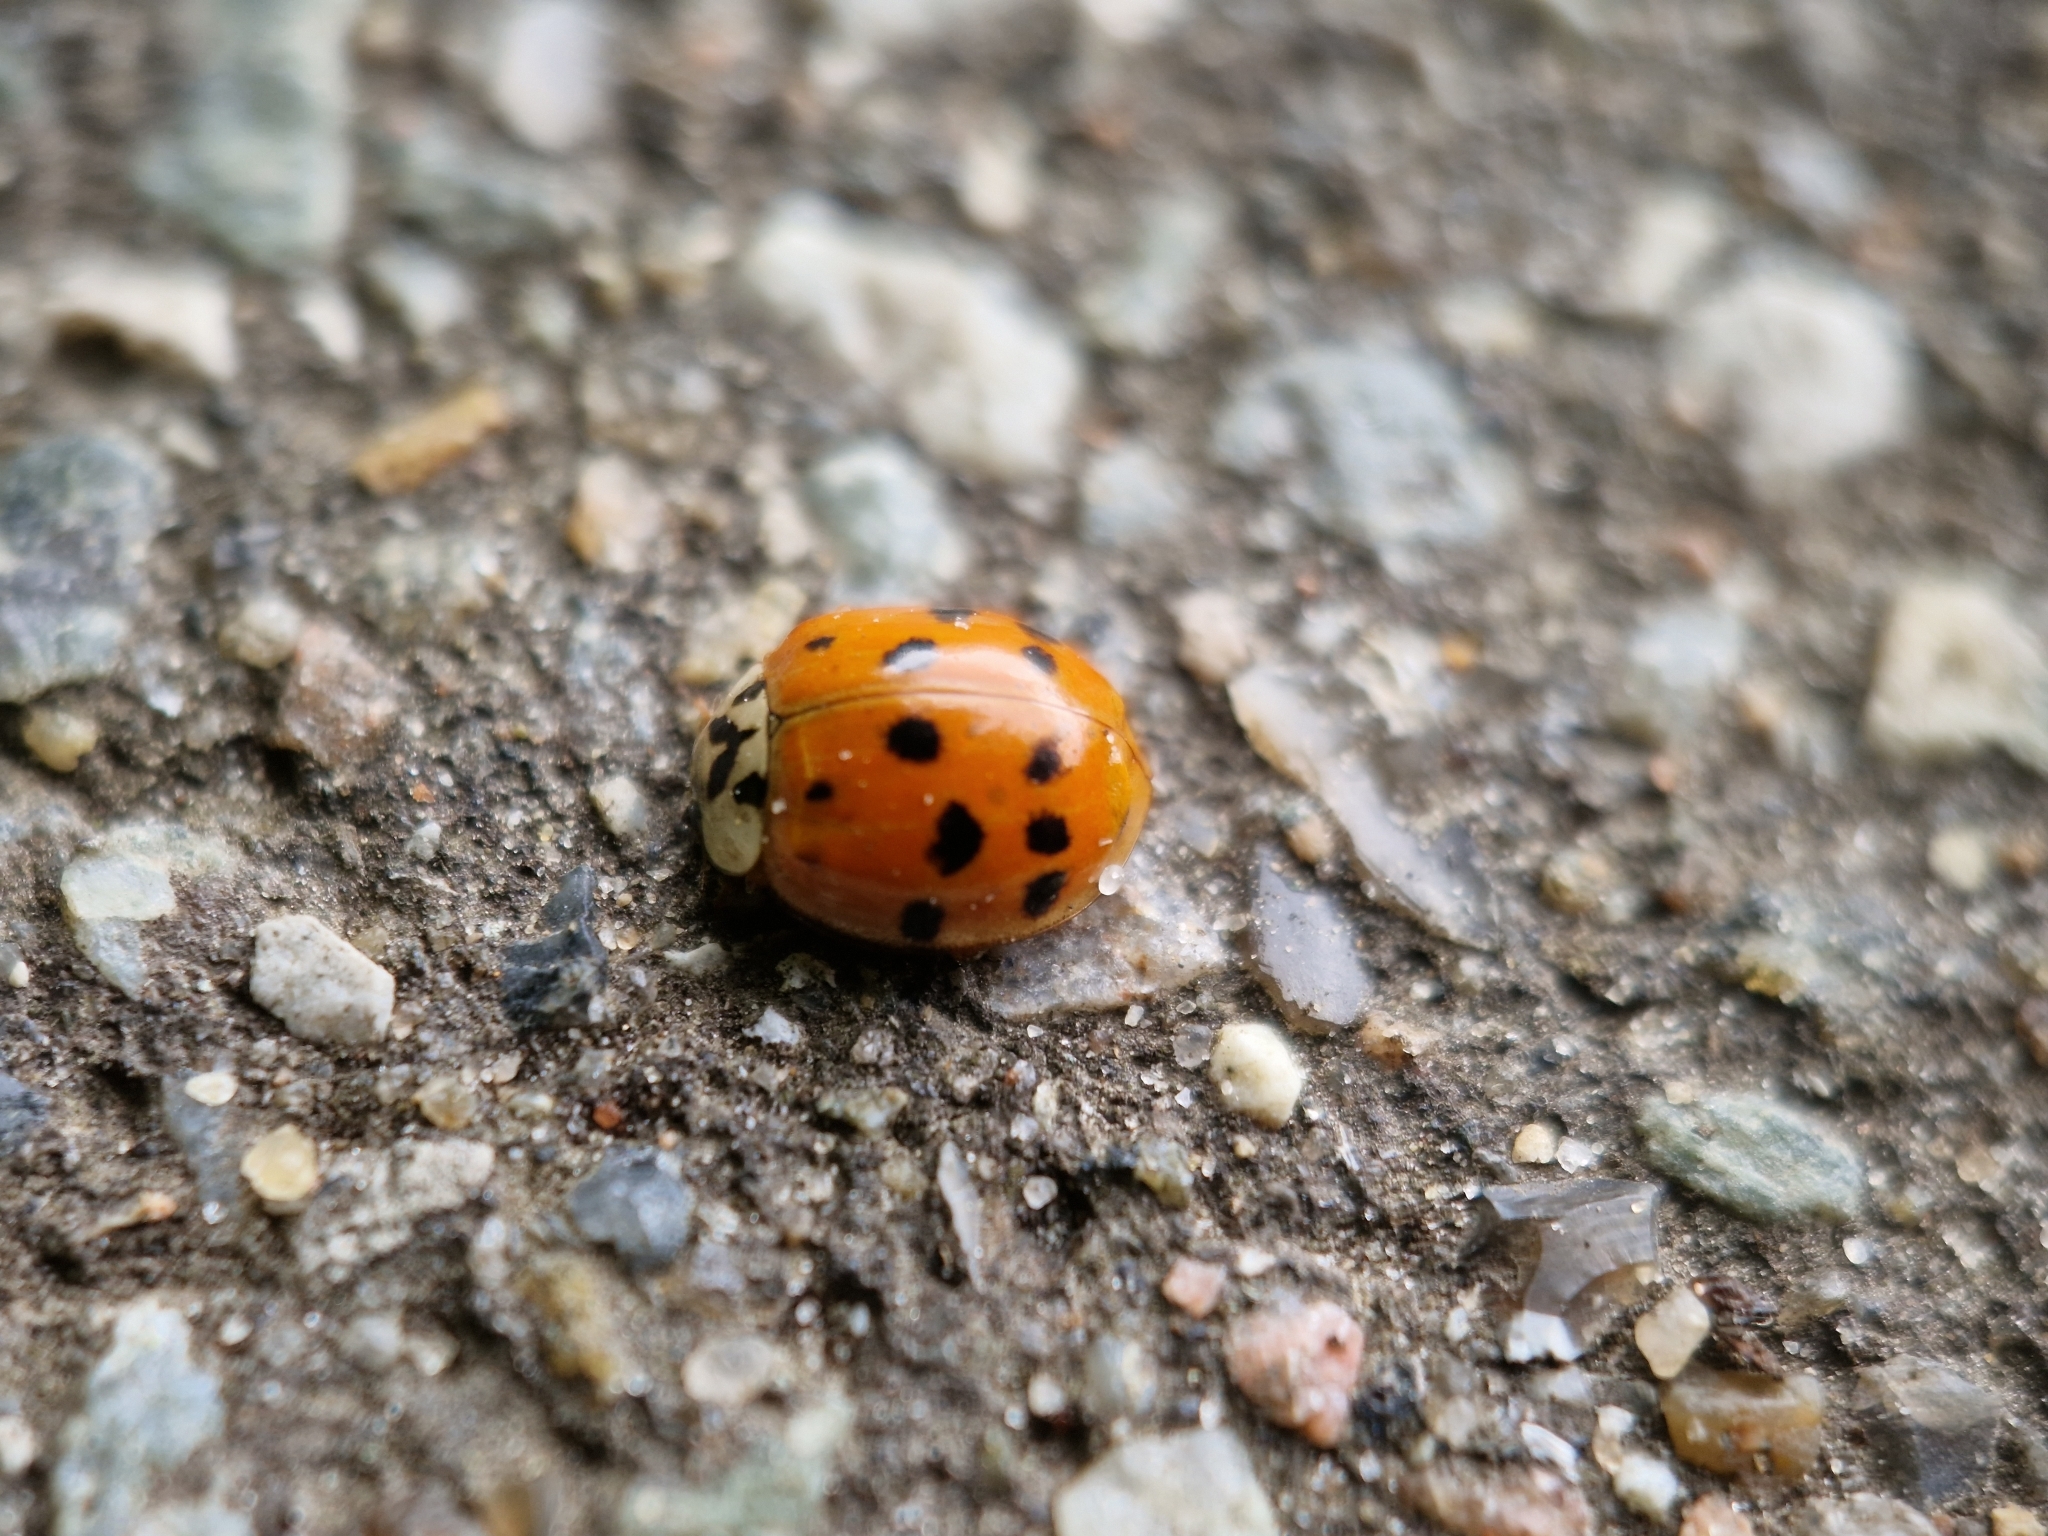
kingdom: Animalia
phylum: Arthropoda
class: Insecta
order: Coleoptera
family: Coccinellidae
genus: Harmonia
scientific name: Harmonia axyridis
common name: Harlequin ladybird
